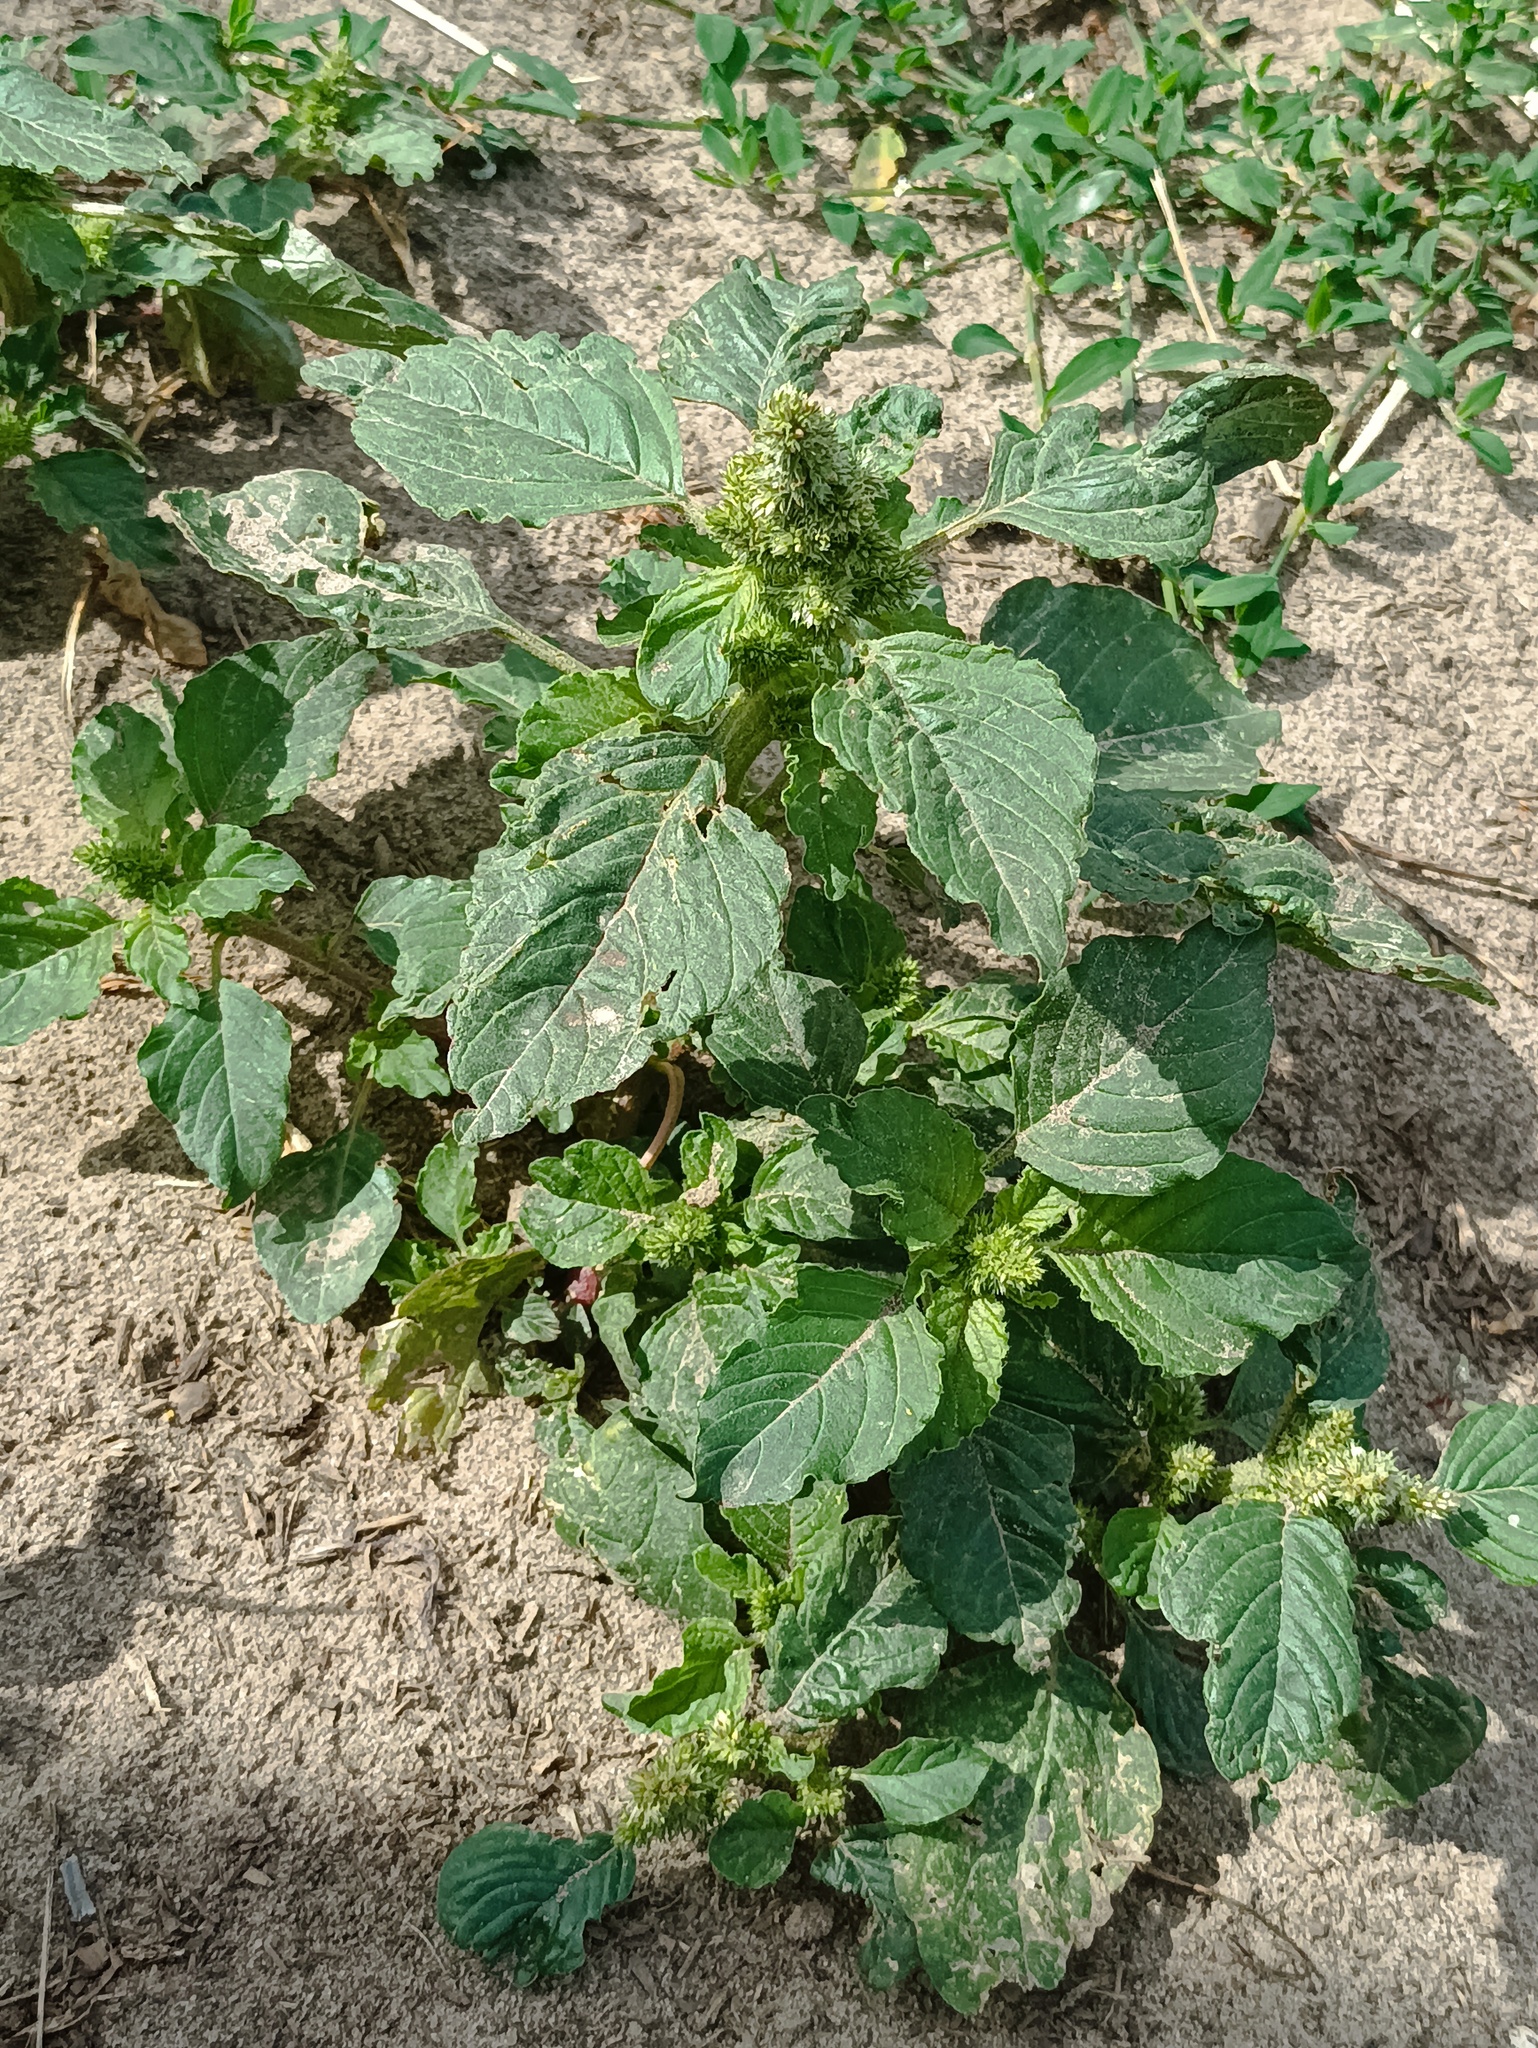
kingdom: Plantae
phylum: Tracheophyta
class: Magnoliopsida
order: Caryophyllales
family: Amaranthaceae
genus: Amaranthus
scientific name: Amaranthus retroflexus
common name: Redroot amaranth
